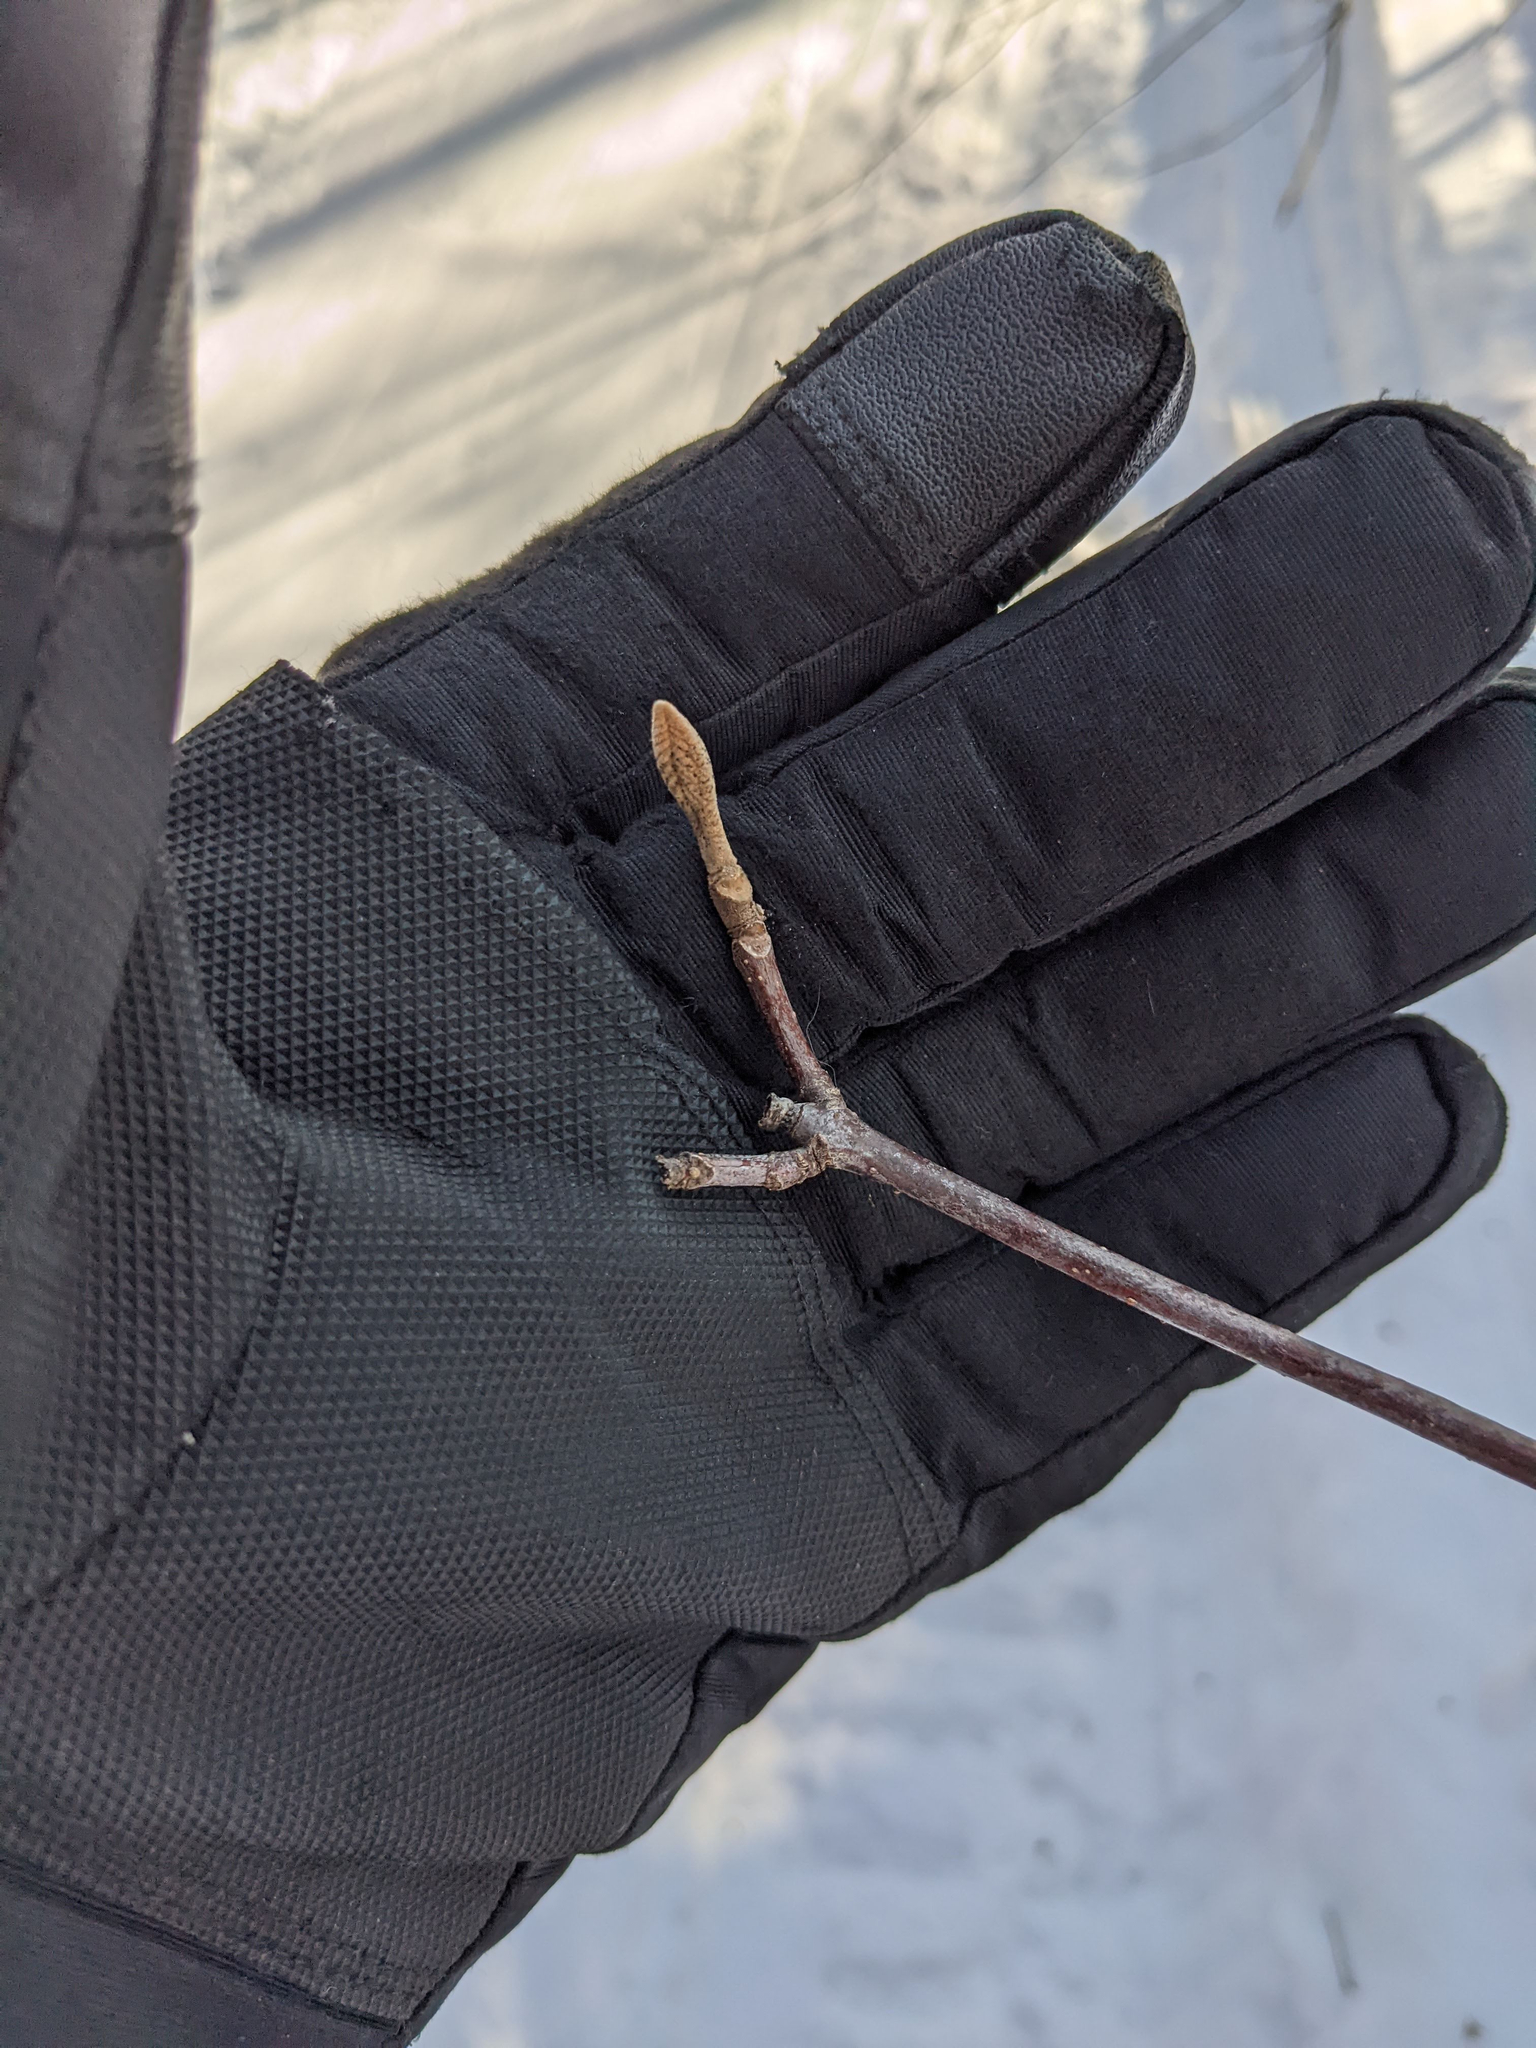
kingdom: Plantae
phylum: Tracheophyta
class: Magnoliopsida
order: Dipsacales
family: Viburnaceae
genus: Viburnum
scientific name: Viburnum lantanoides
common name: Hobblebush
